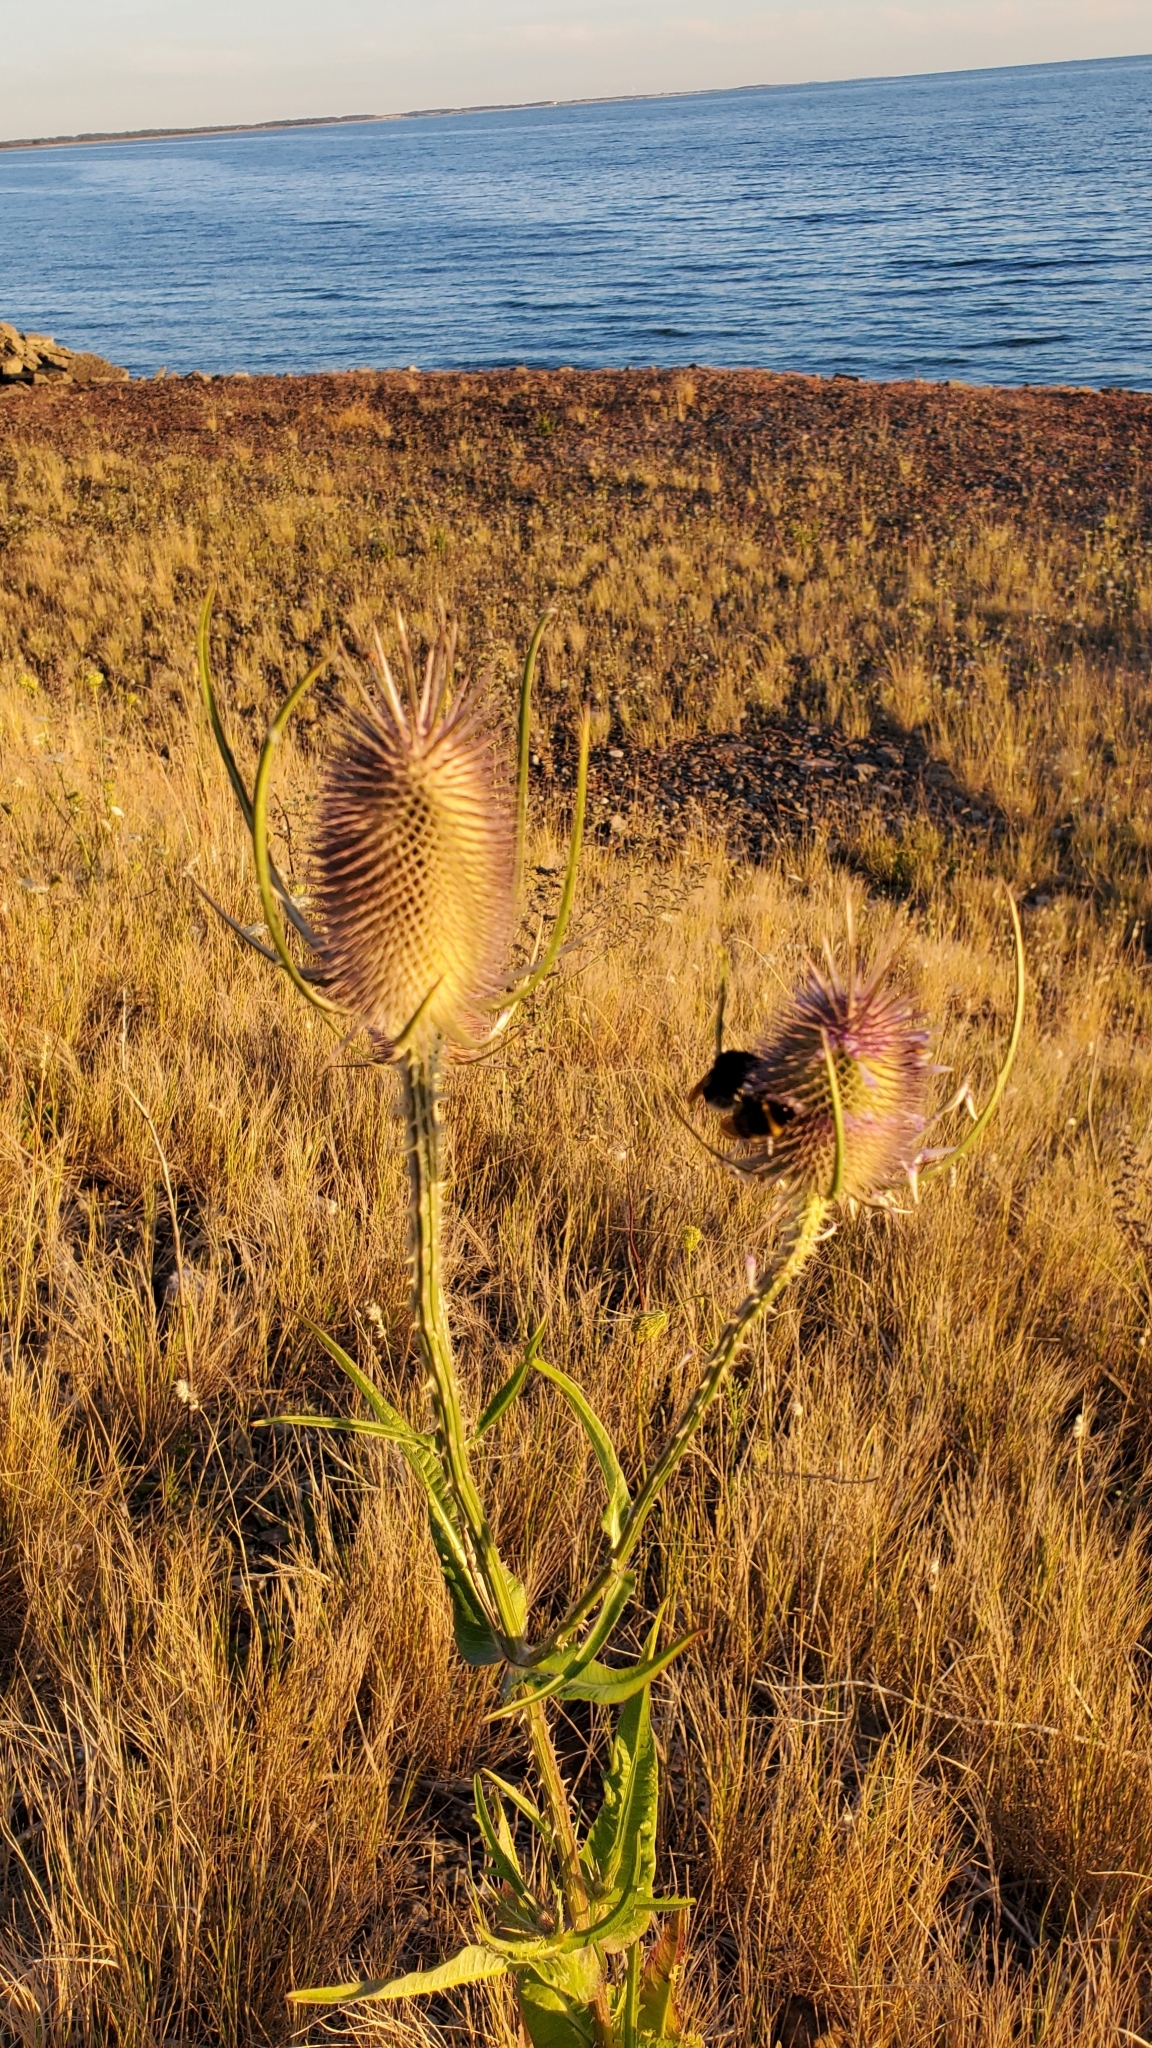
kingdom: Plantae
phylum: Tracheophyta
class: Magnoliopsida
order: Dipsacales
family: Caprifoliaceae
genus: Dipsacus
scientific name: Dipsacus fullonum
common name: Teasel
